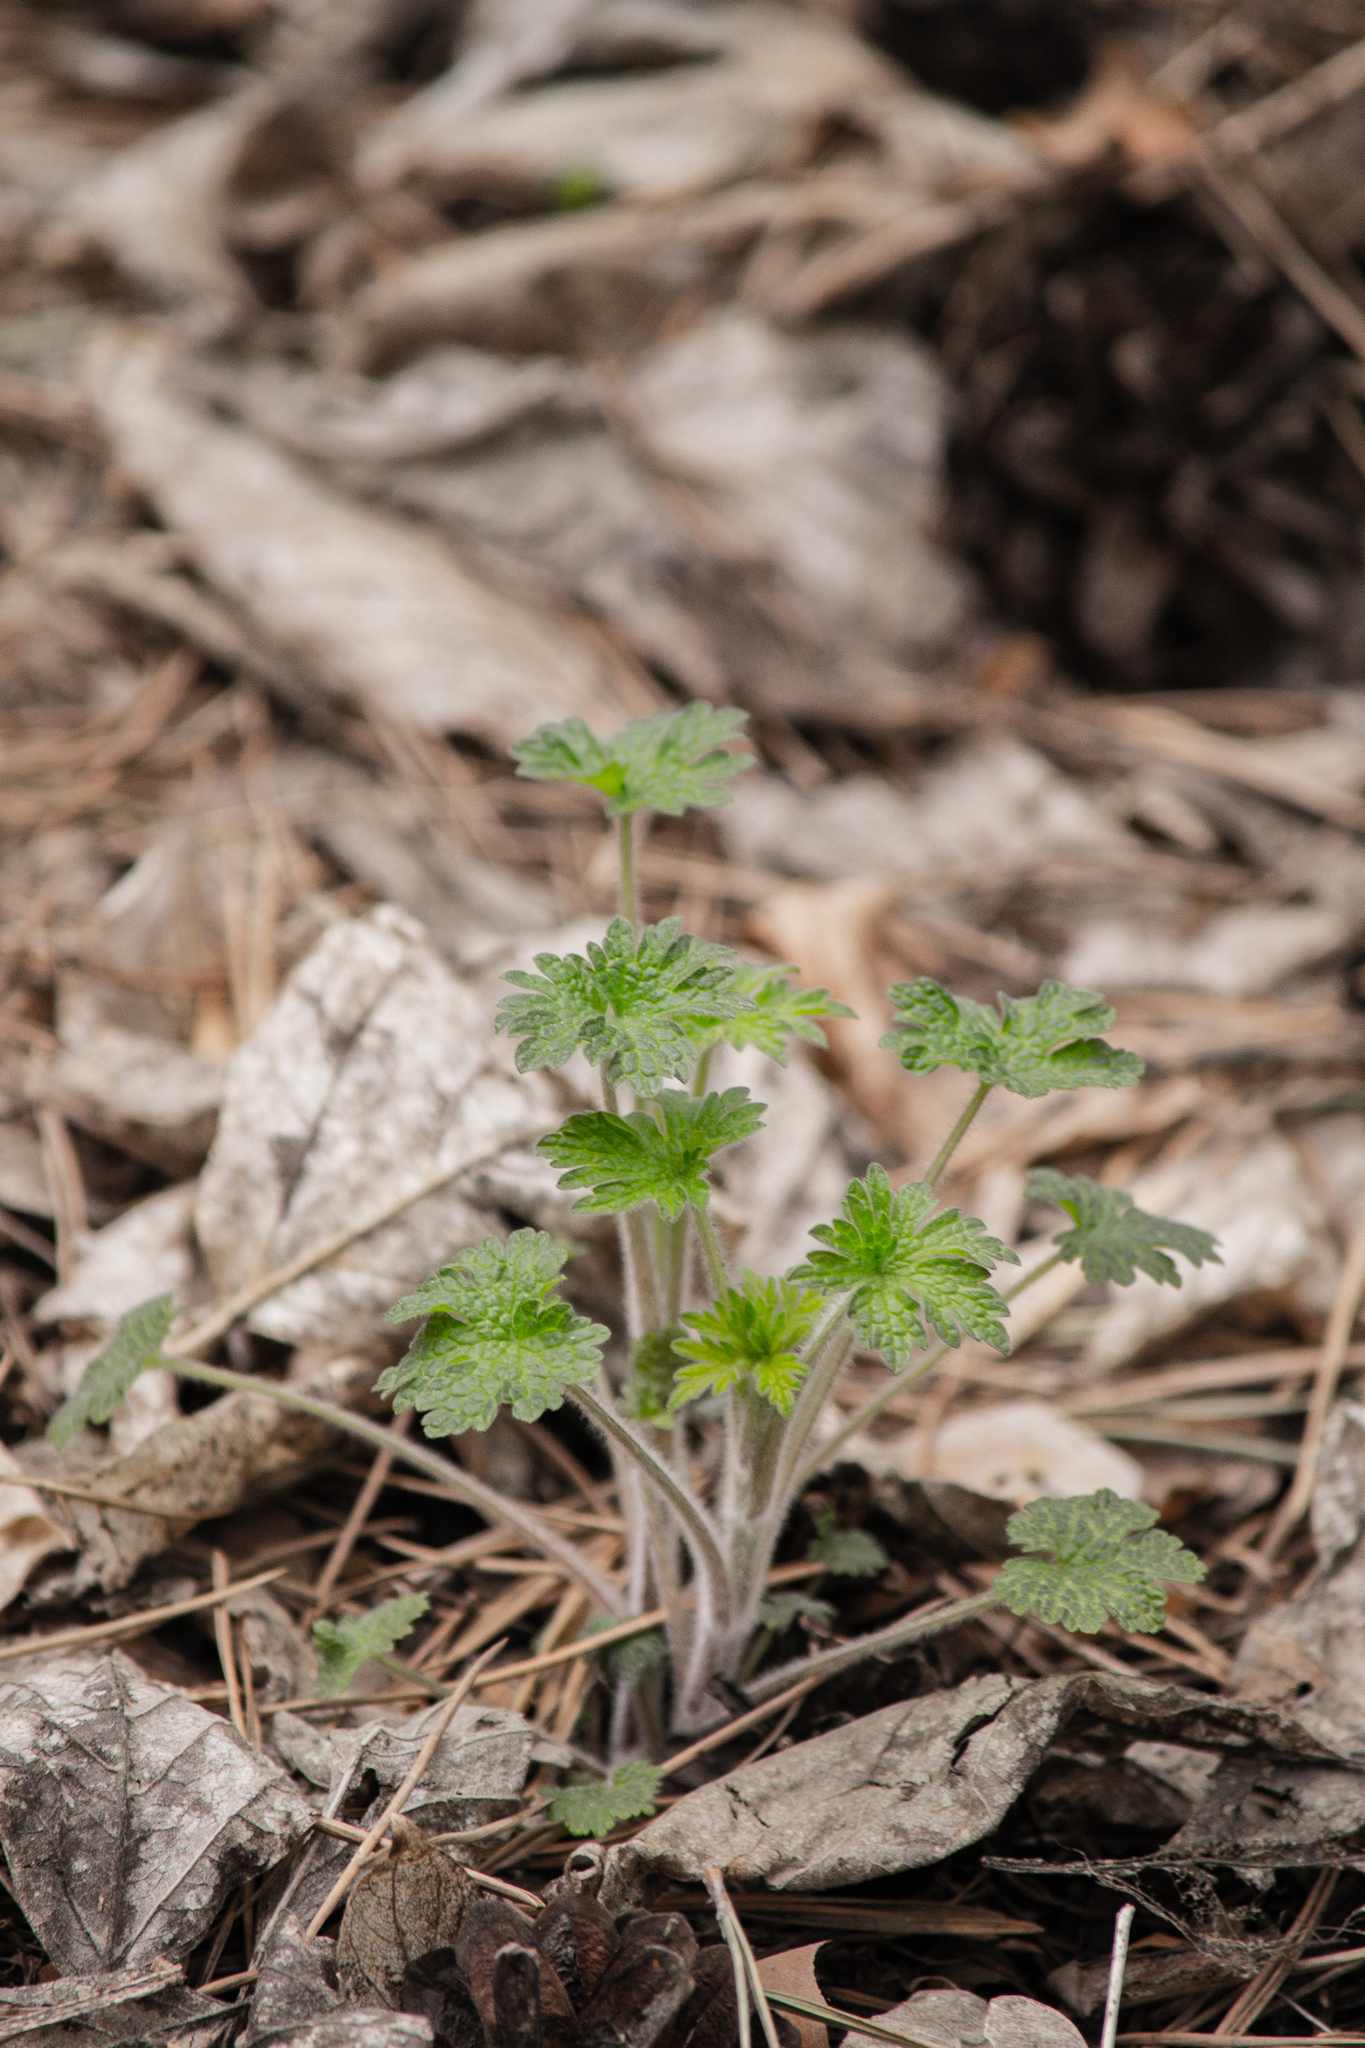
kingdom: Plantae
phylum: Tracheophyta
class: Magnoliopsida
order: Lamiales
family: Lamiaceae
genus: Leonurus
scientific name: Leonurus quinquelobatus
